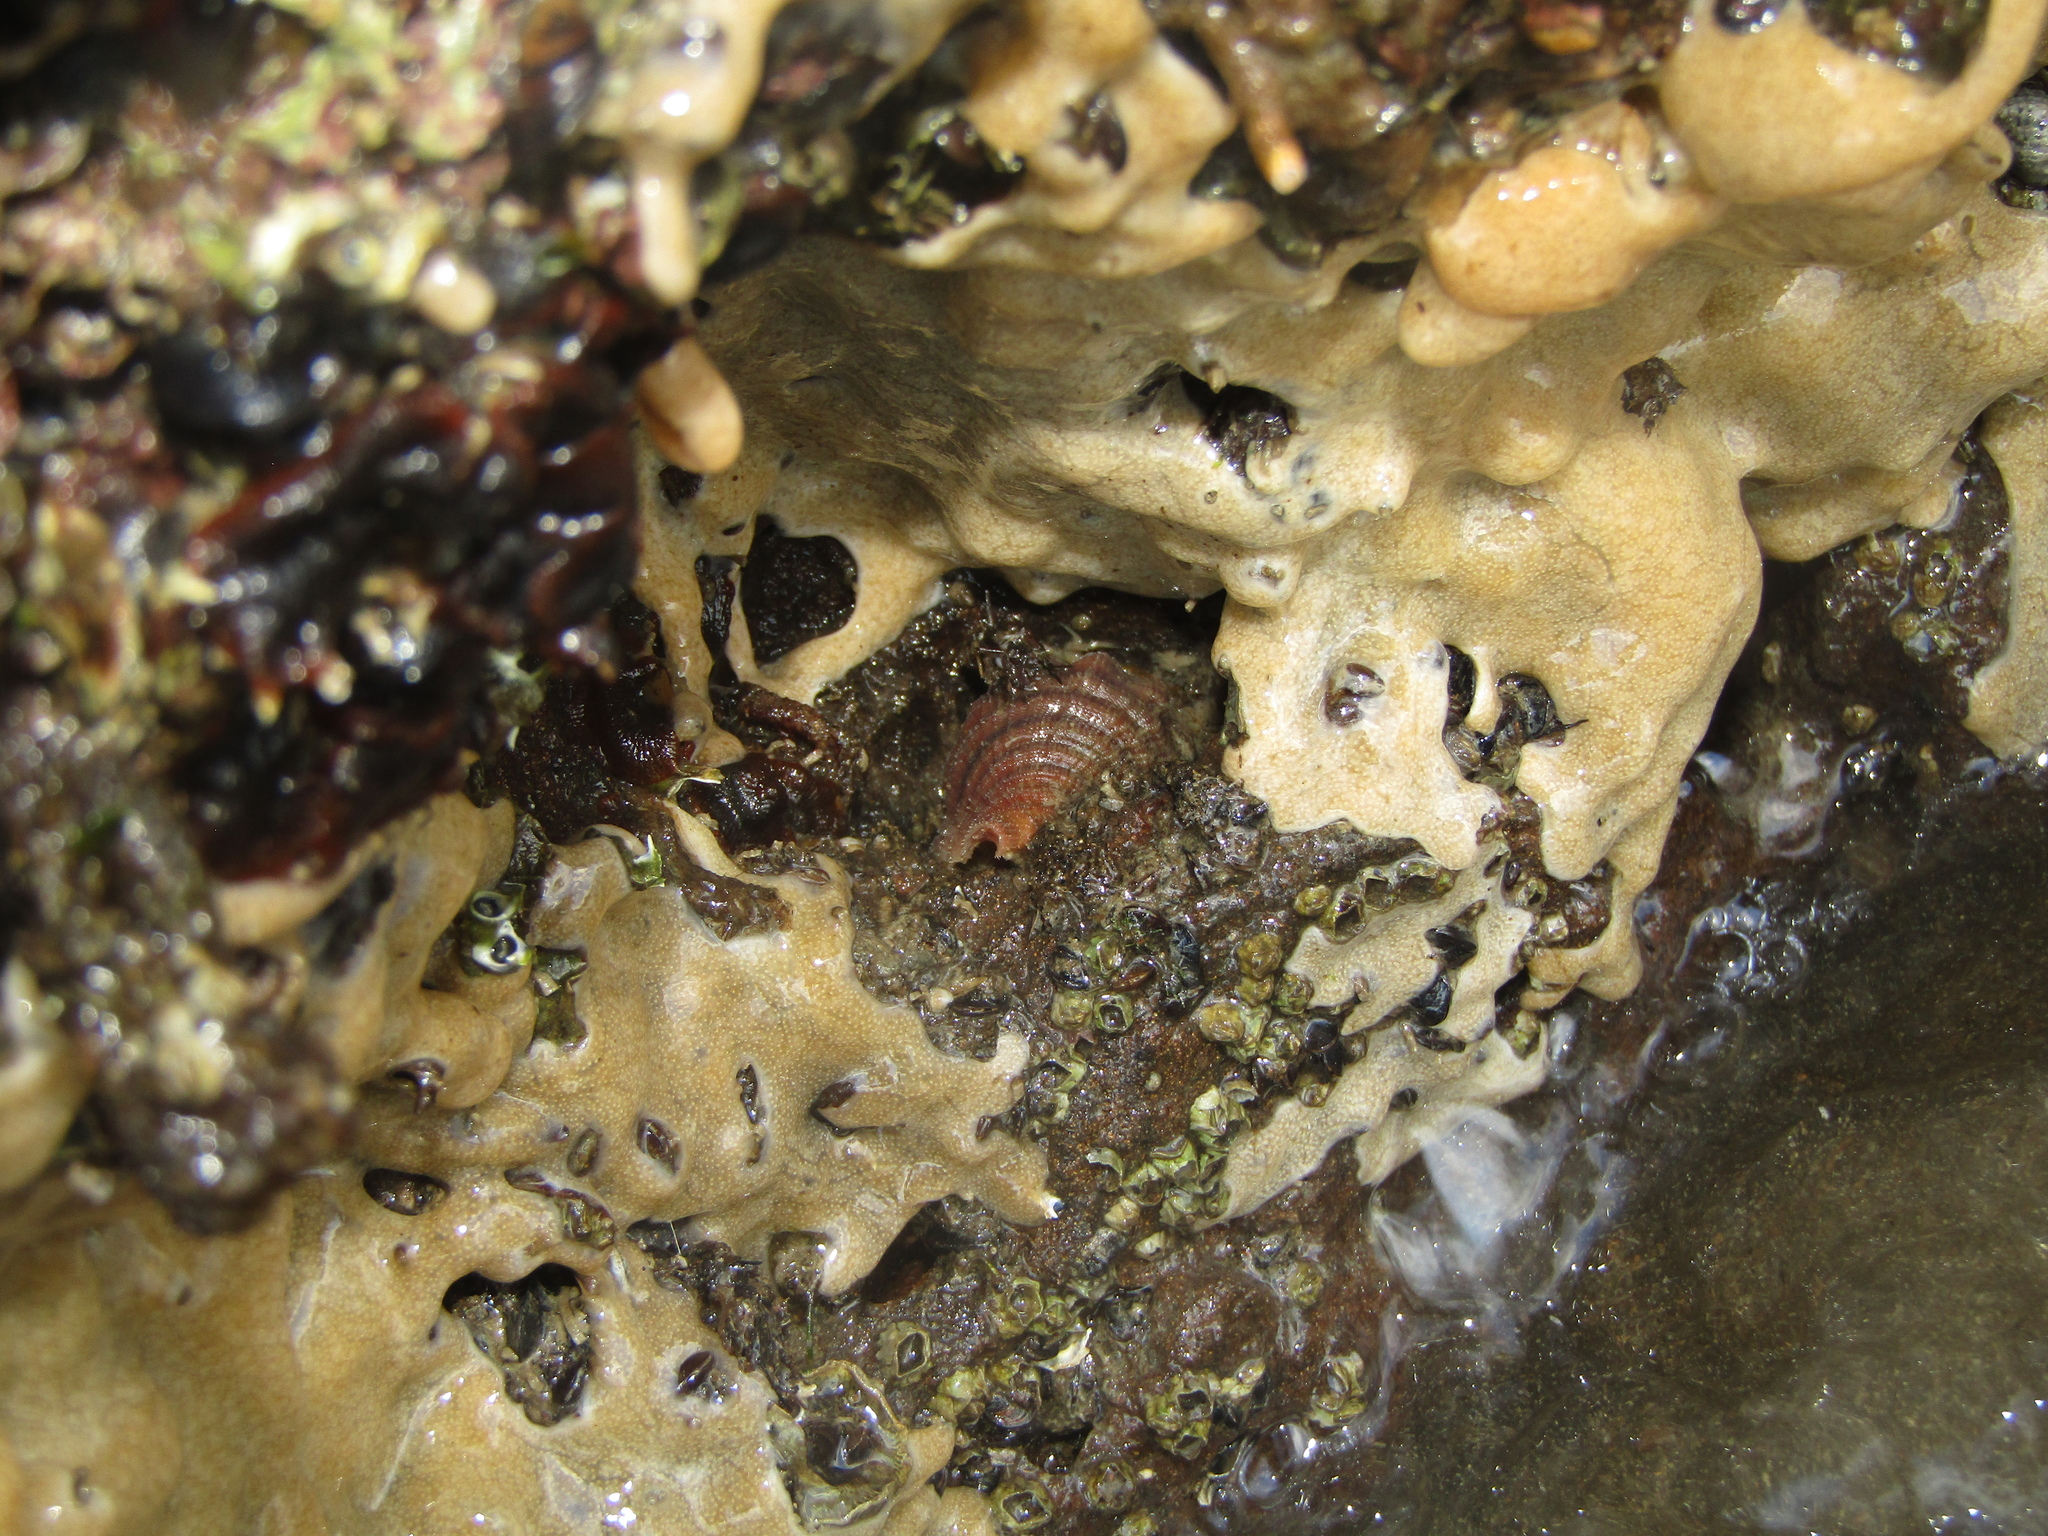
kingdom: Animalia
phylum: Mollusca
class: Gastropoda
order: Littorinimorpha
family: Cymatiidae
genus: Cabestana
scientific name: Cabestana spengleri
